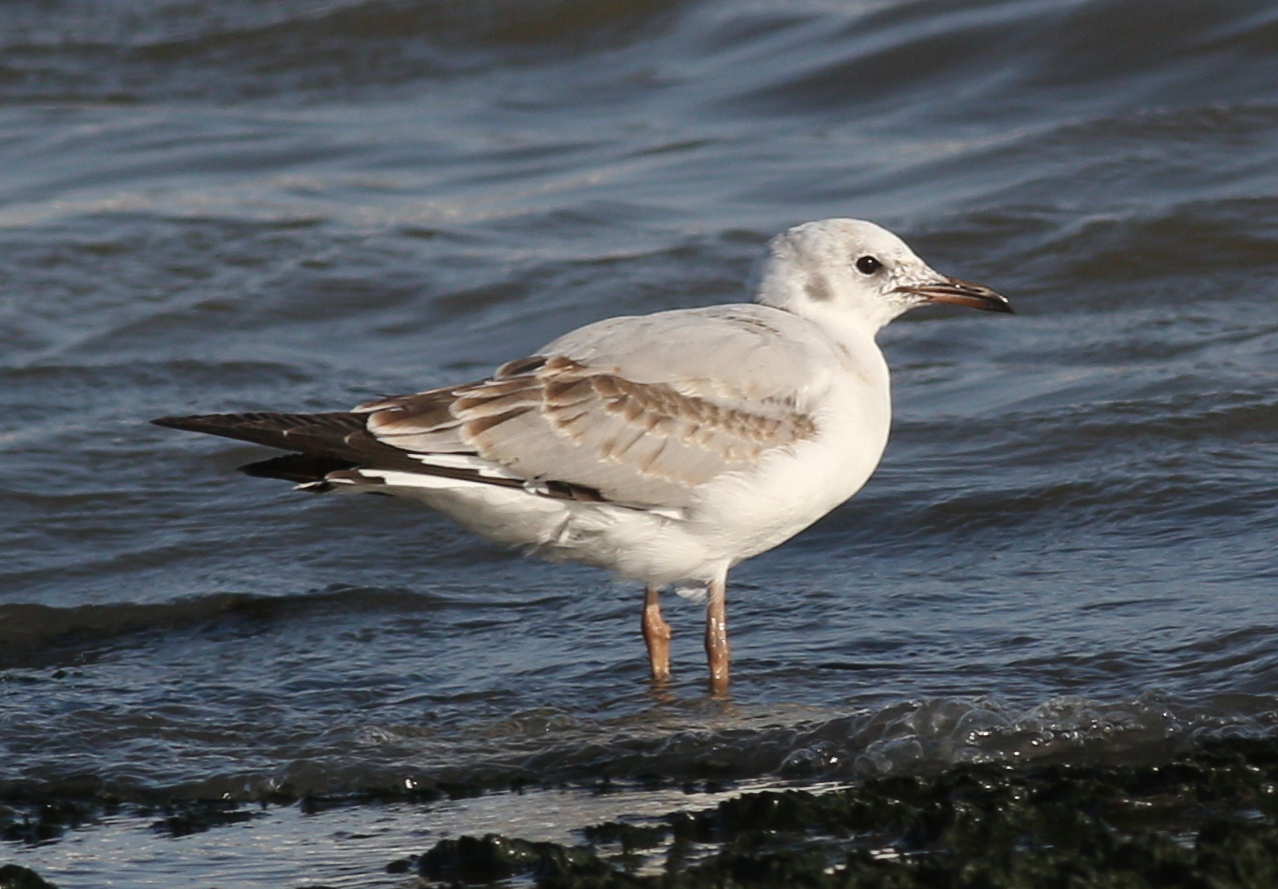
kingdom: Animalia
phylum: Chordata
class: Aves
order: Charadriiformes
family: Laridae
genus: Chroicocephalus
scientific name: Chroicocephalus cirrocephalus
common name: Grey-headed gull
